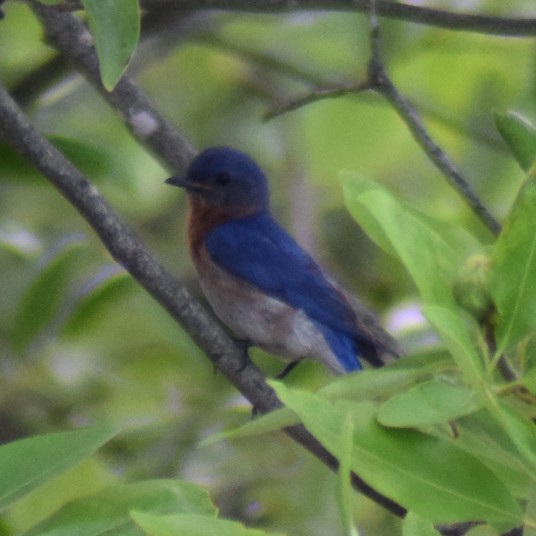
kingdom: Animalia
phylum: Chordata
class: Aves
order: Passeriformes
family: Turdidae
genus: Sialia
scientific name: Sialia sialis
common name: Eastern bluebird
